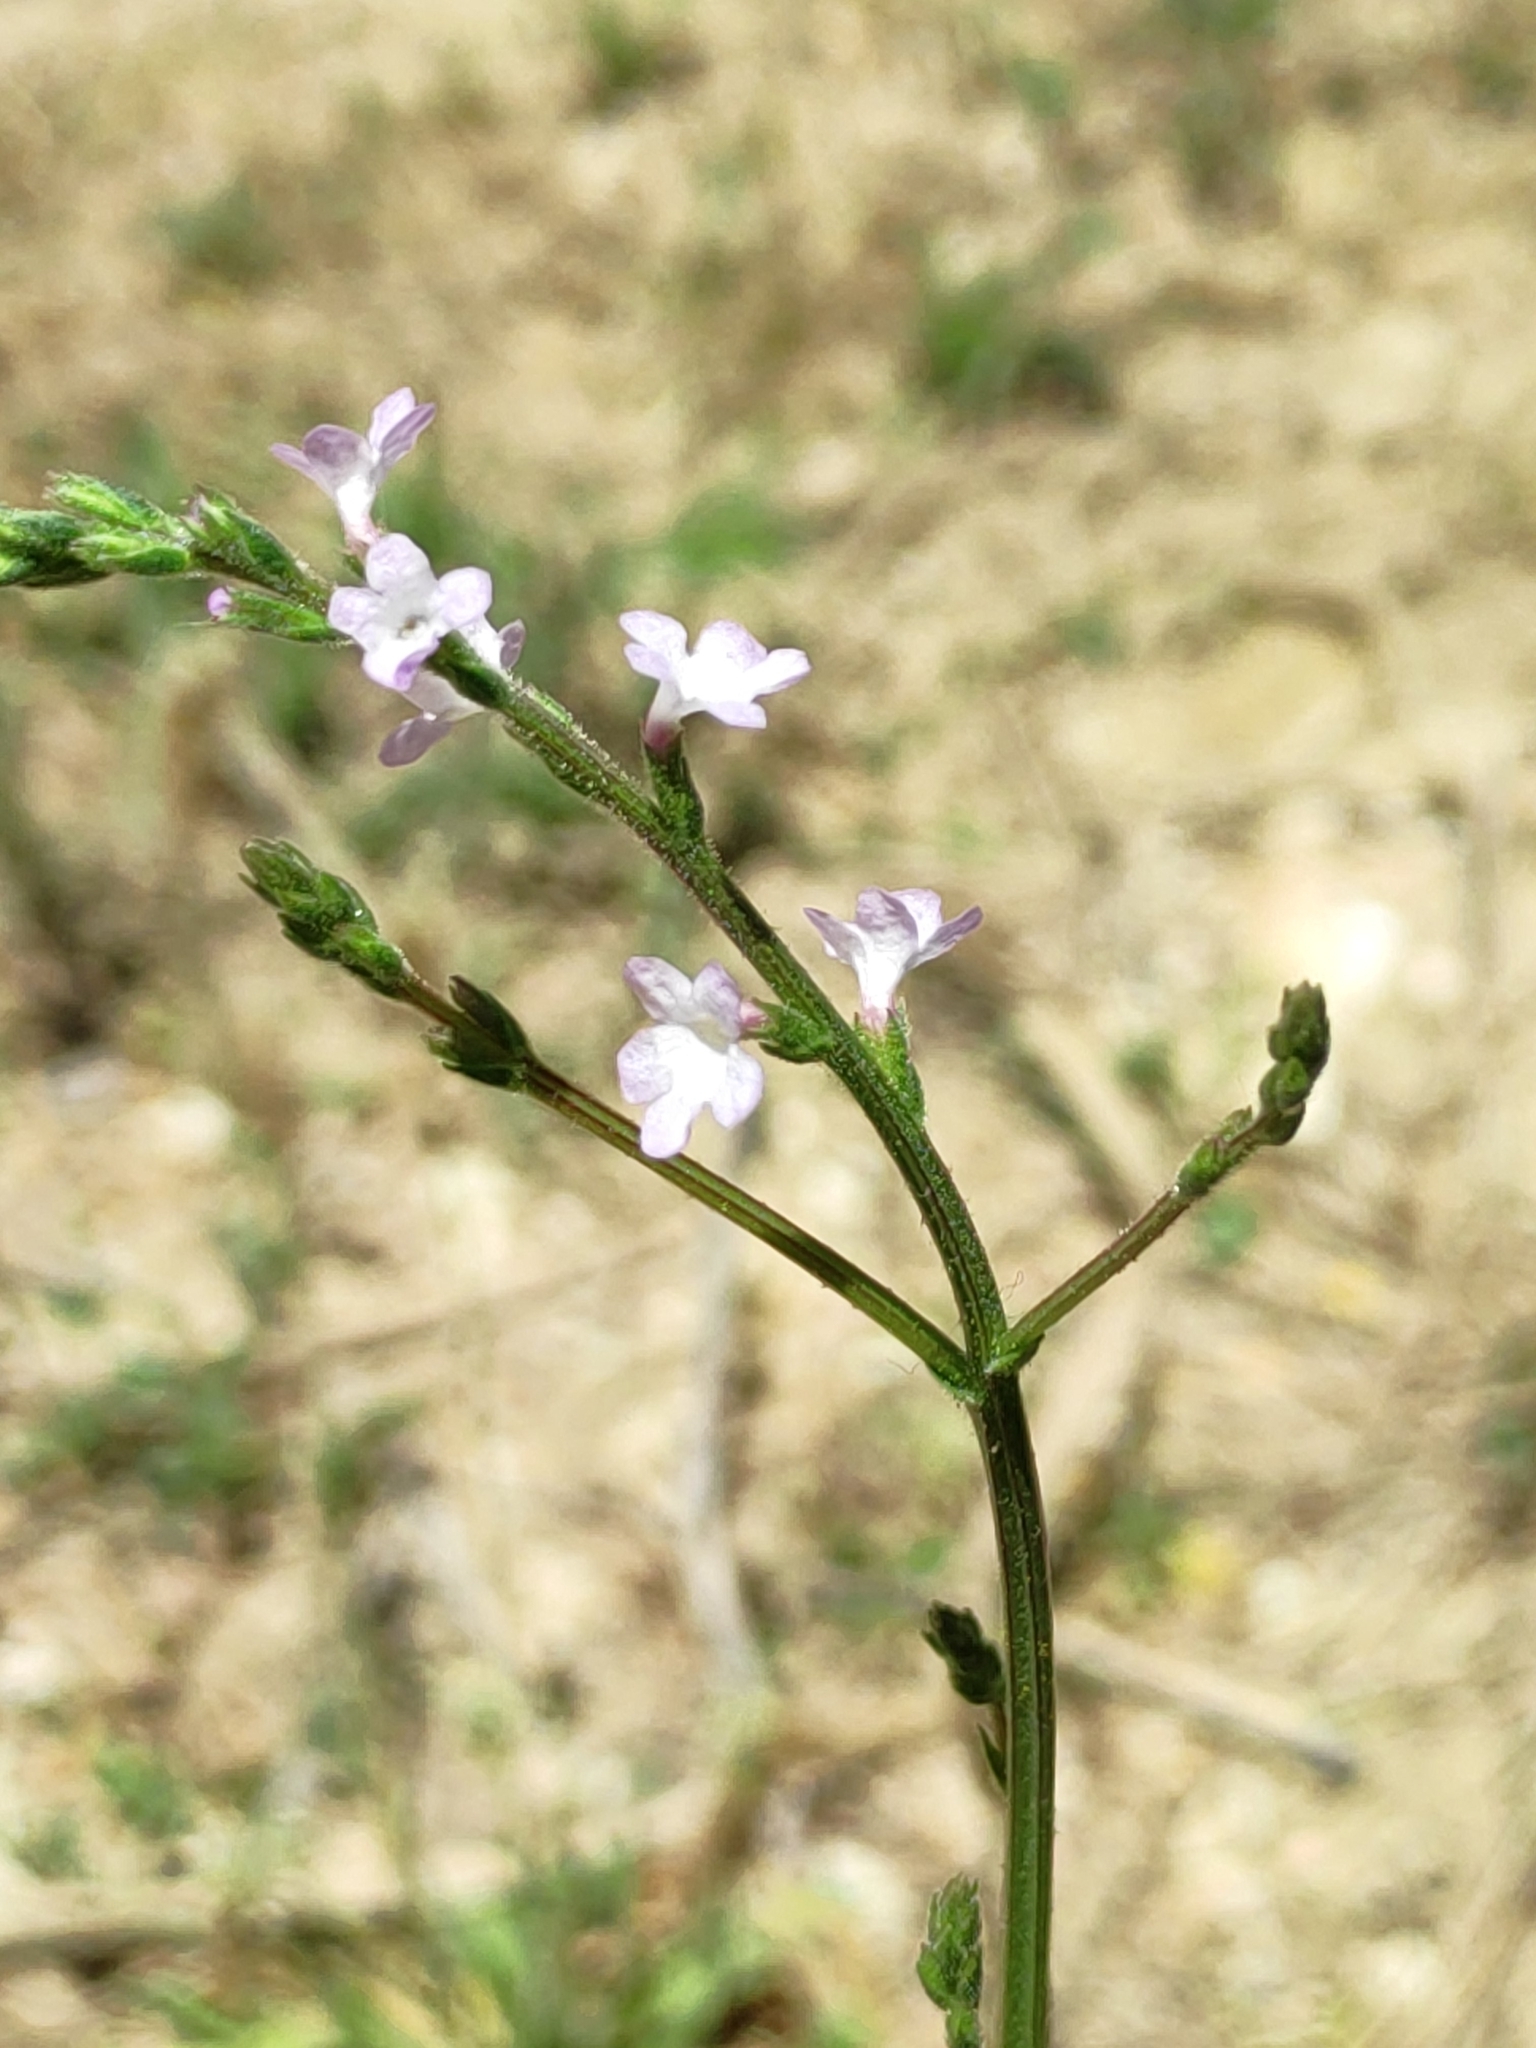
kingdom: Plantae
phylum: Tracheophyta
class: Magnoliopsida
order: Lamiales
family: Verbenaceae
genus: Verbena
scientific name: Verbena officinalis
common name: Vervain
